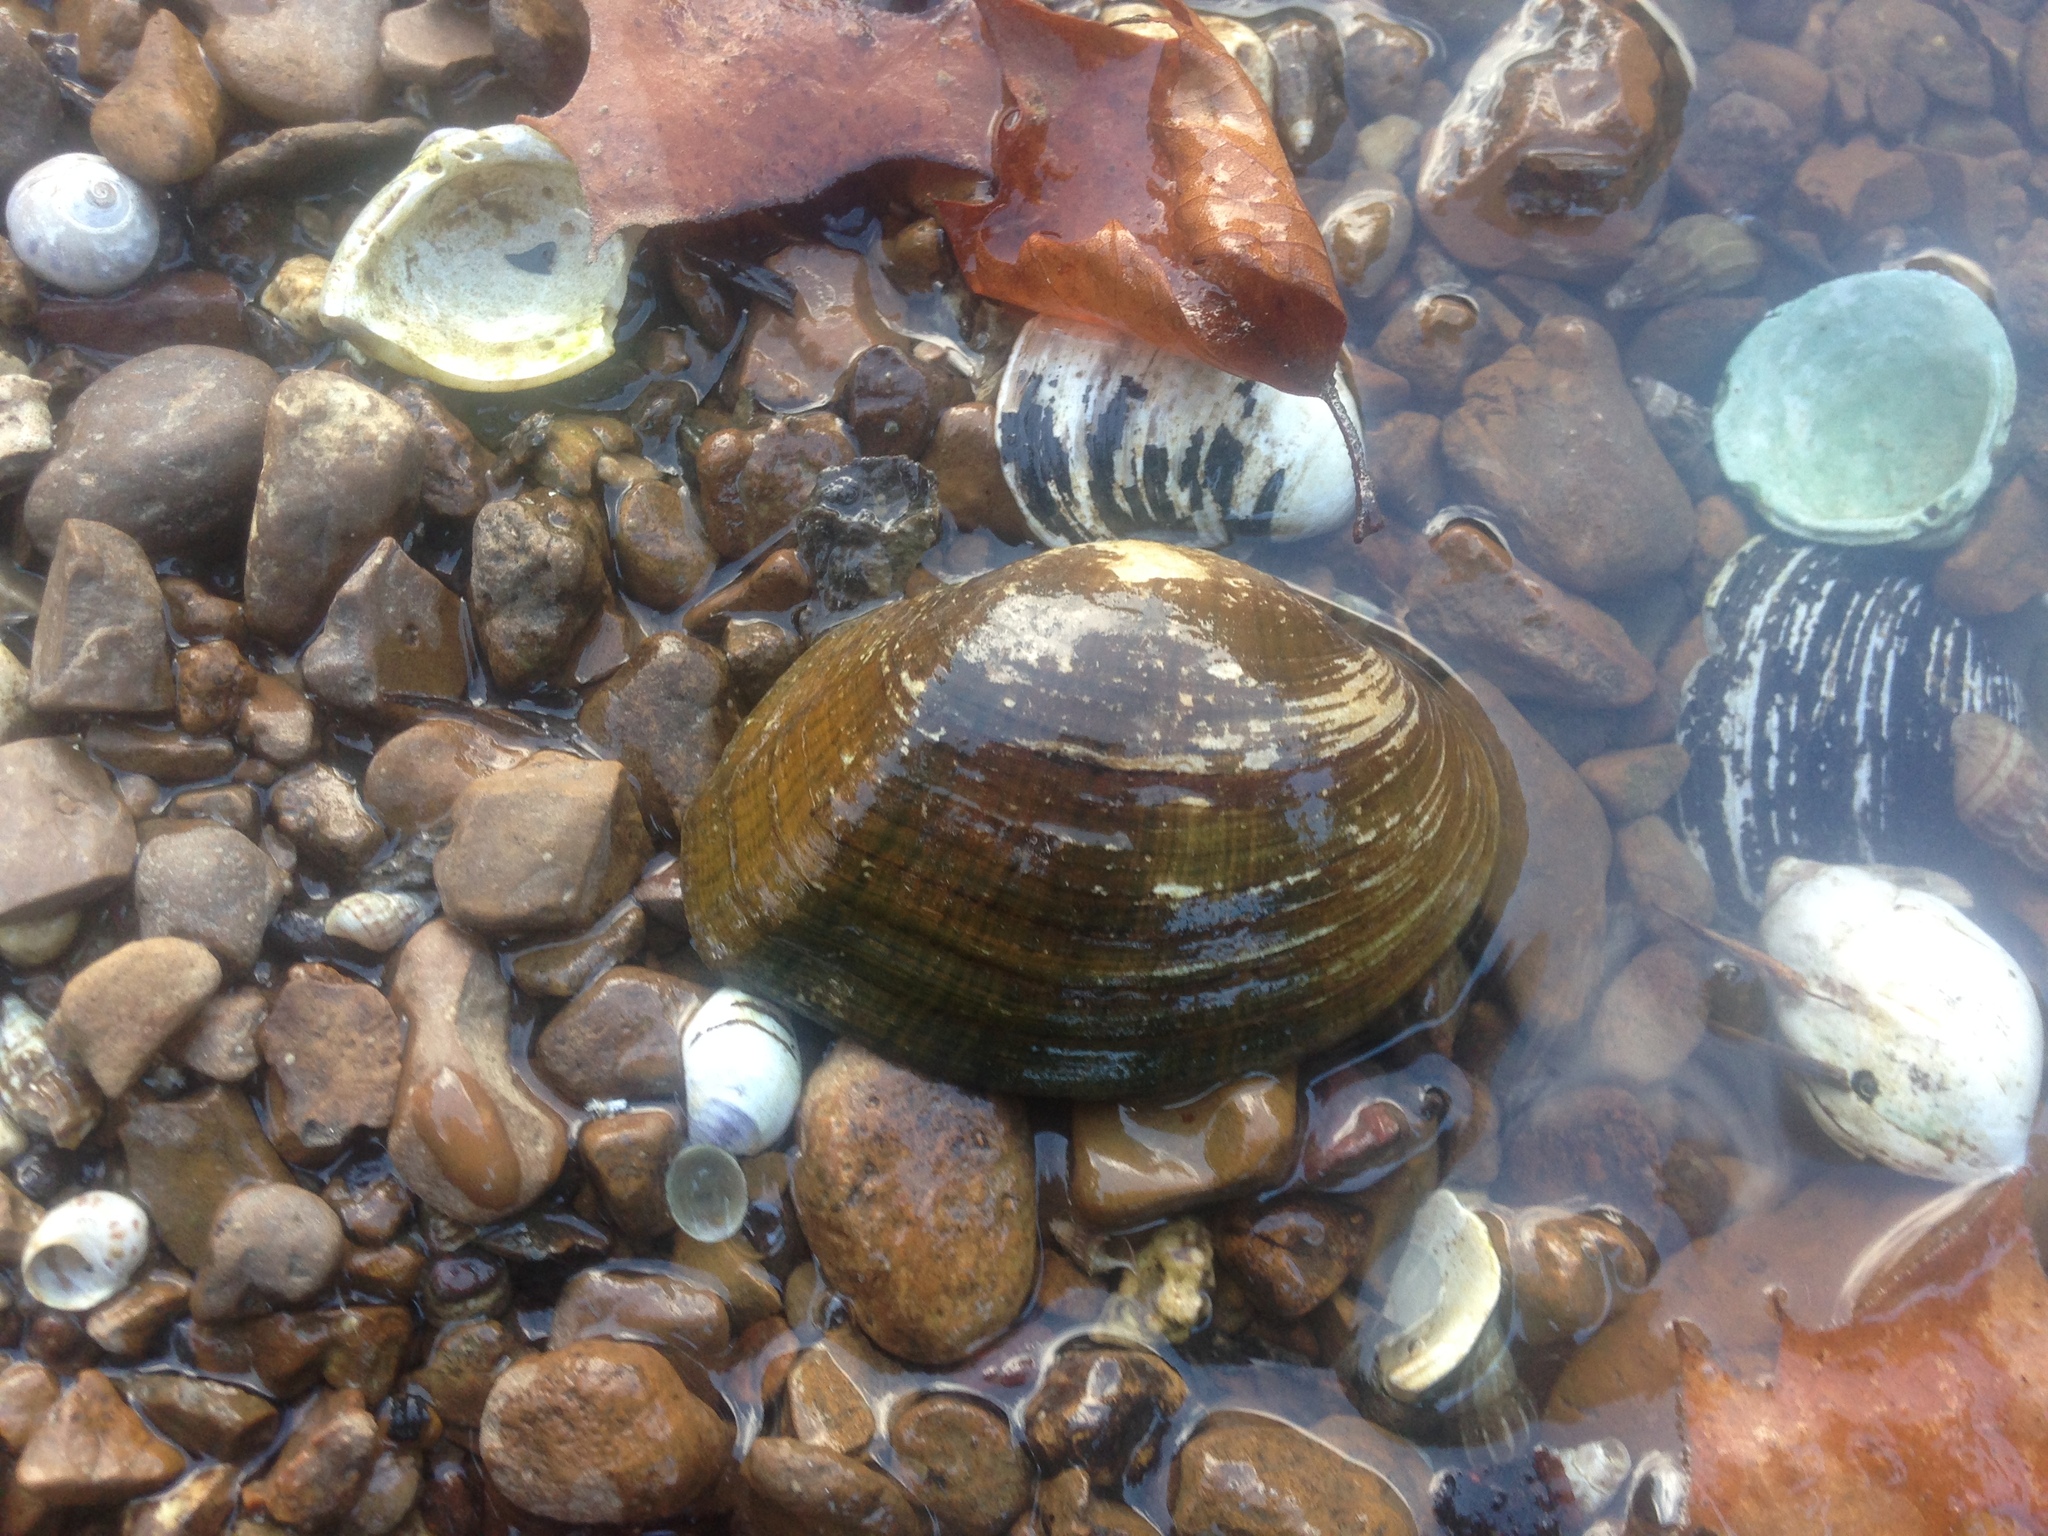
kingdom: Animalia
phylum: Mollusca
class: Bivalvia
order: Unionida
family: Unionidae
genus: Epioblasma
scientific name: Epioblasma ahlstedti
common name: Duck river dartersnapper
